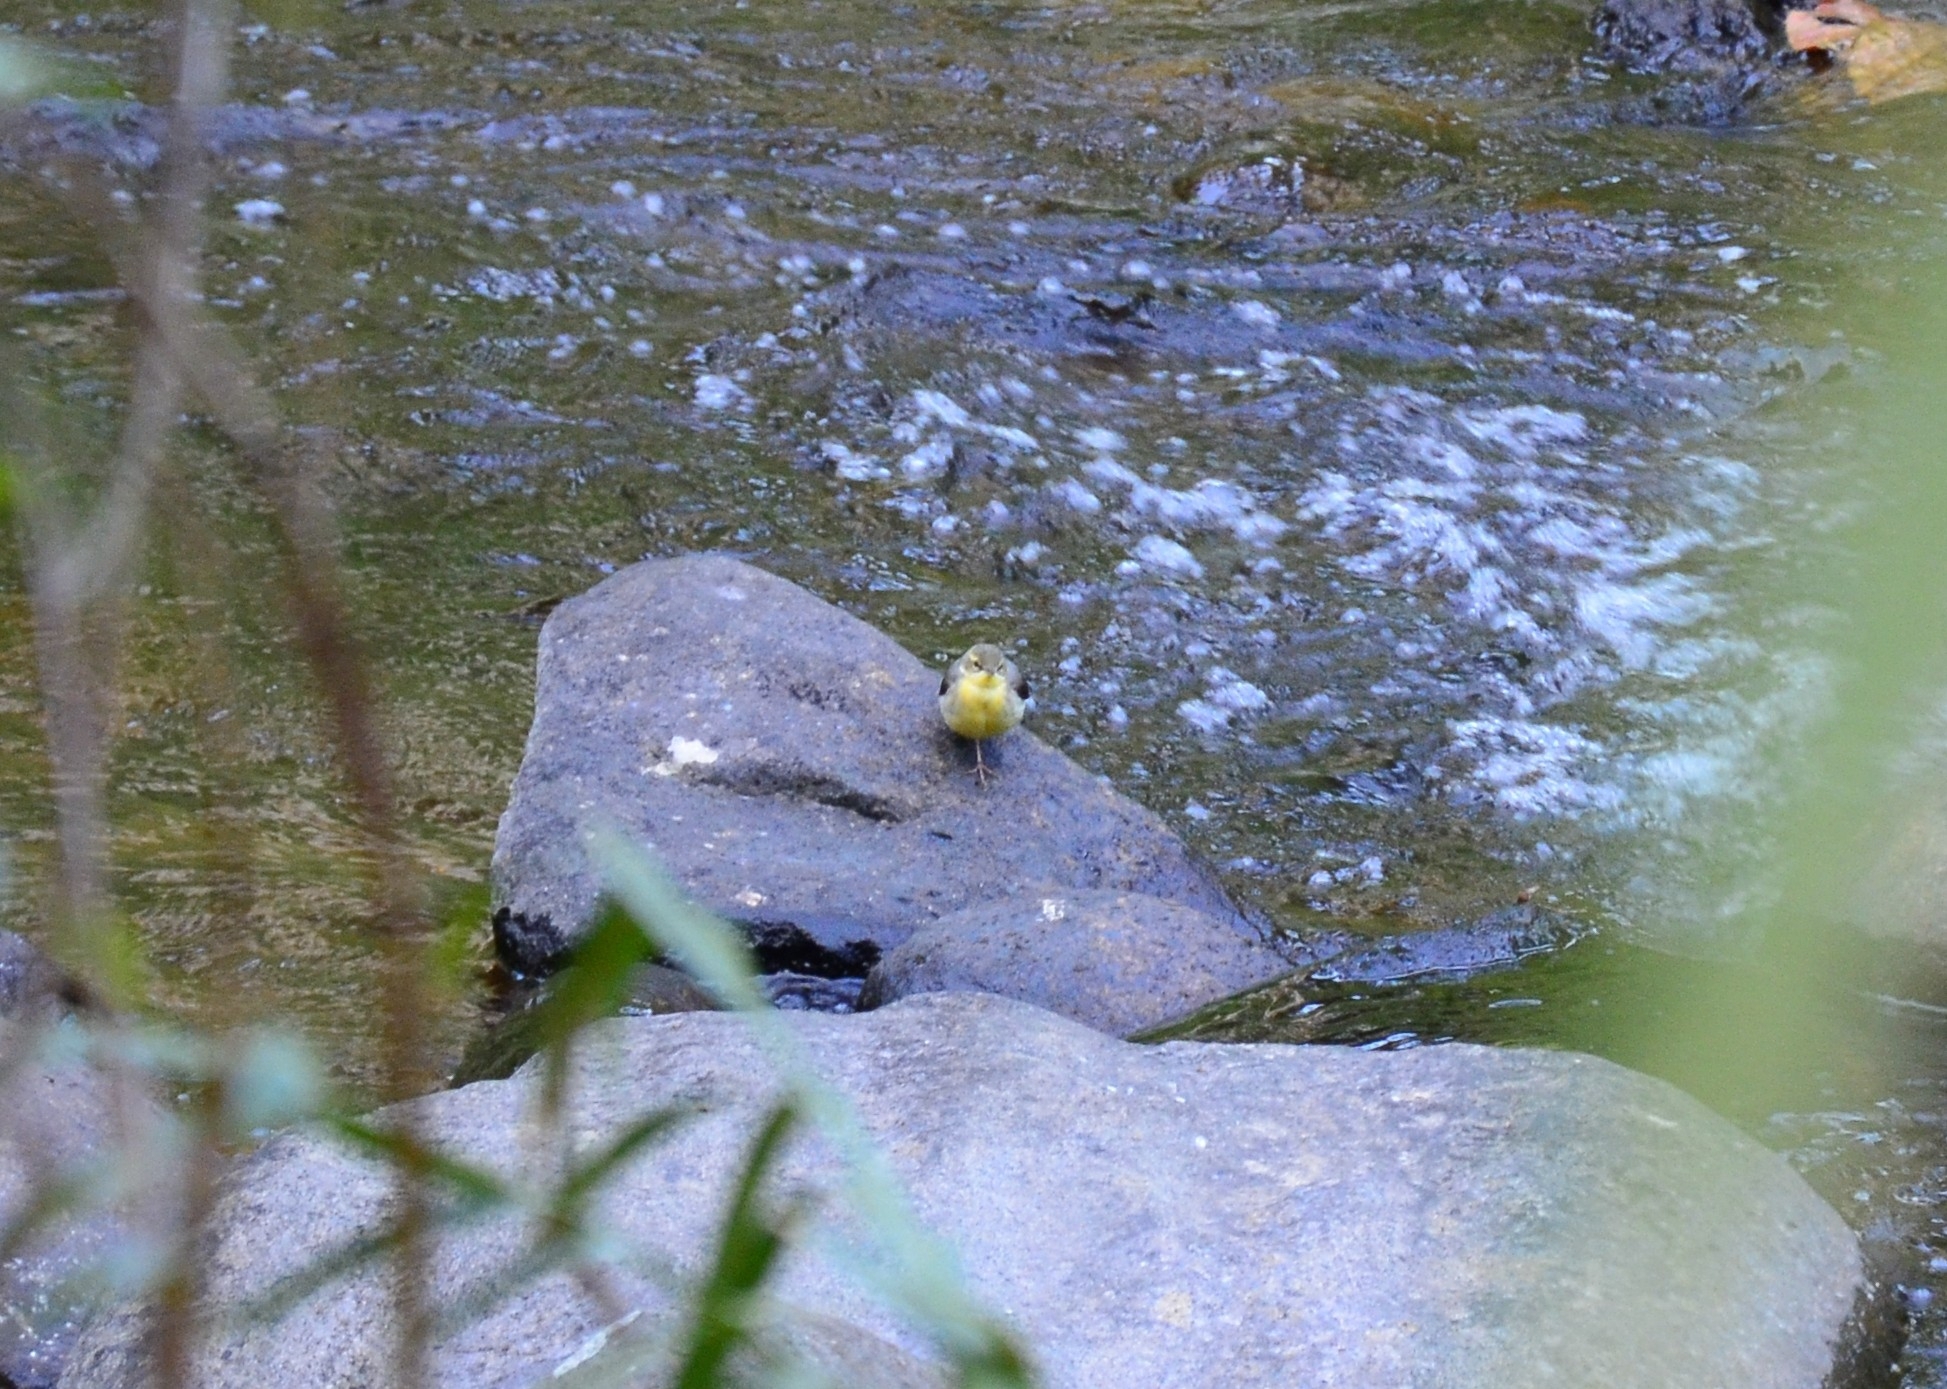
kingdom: Animalia
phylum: Chordata
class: Aves
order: Passeriformes
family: Motacillidae
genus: Motacilla
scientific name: Motacilla cinerea
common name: Grey wagtail
